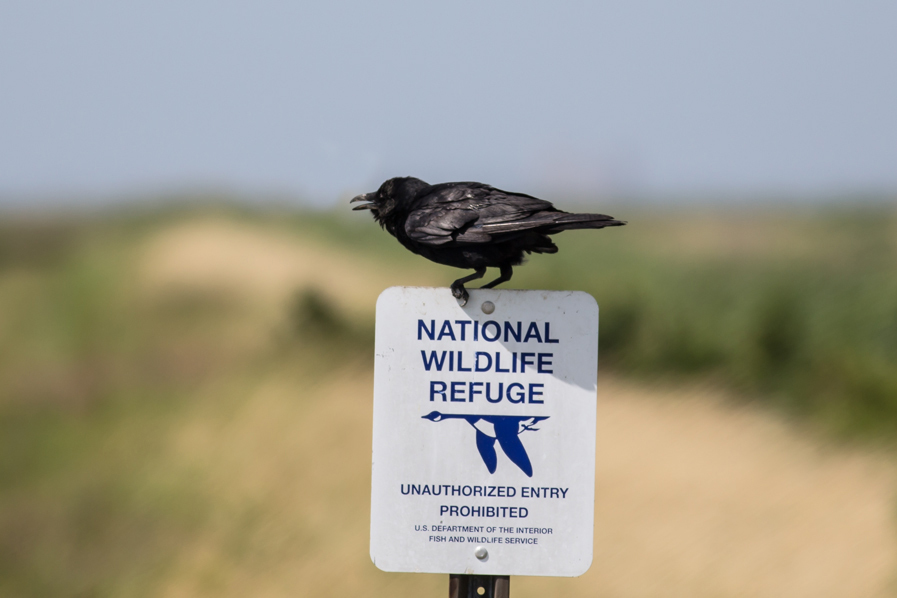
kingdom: Animalia
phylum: Chordata
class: Aves
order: Passeriformes
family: Corvidae
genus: Corvus
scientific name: Corvus ossifragus
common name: Fish crow
